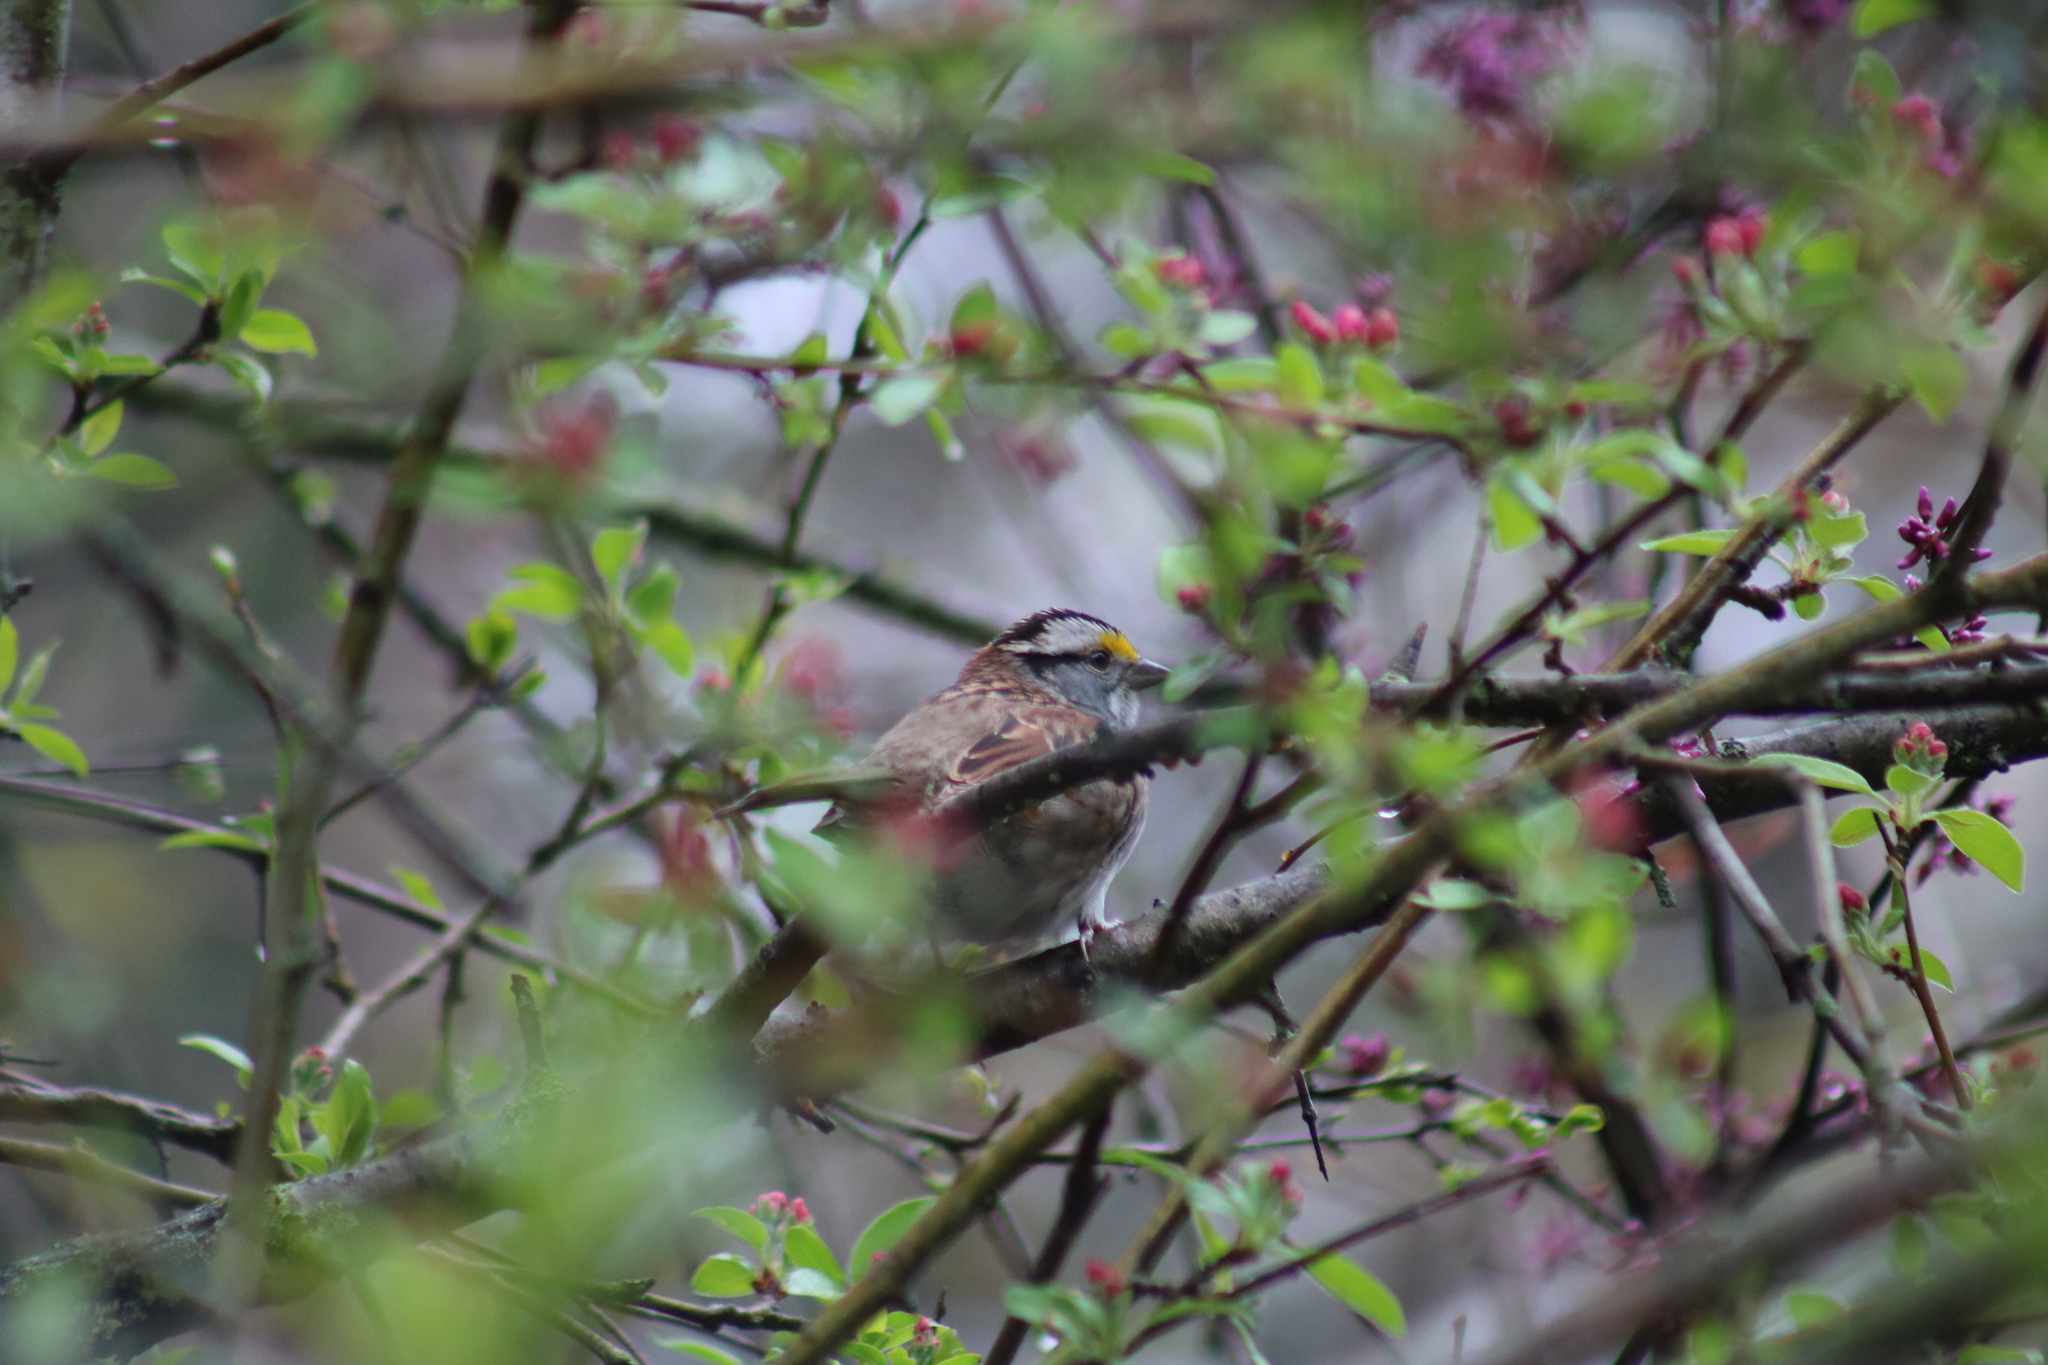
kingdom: Animalia
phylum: Chordata
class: Aves
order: Passeriformes
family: Passerellidae
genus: Zonotrichia
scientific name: Zonotrichia albicollis
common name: White-throated sparrow
